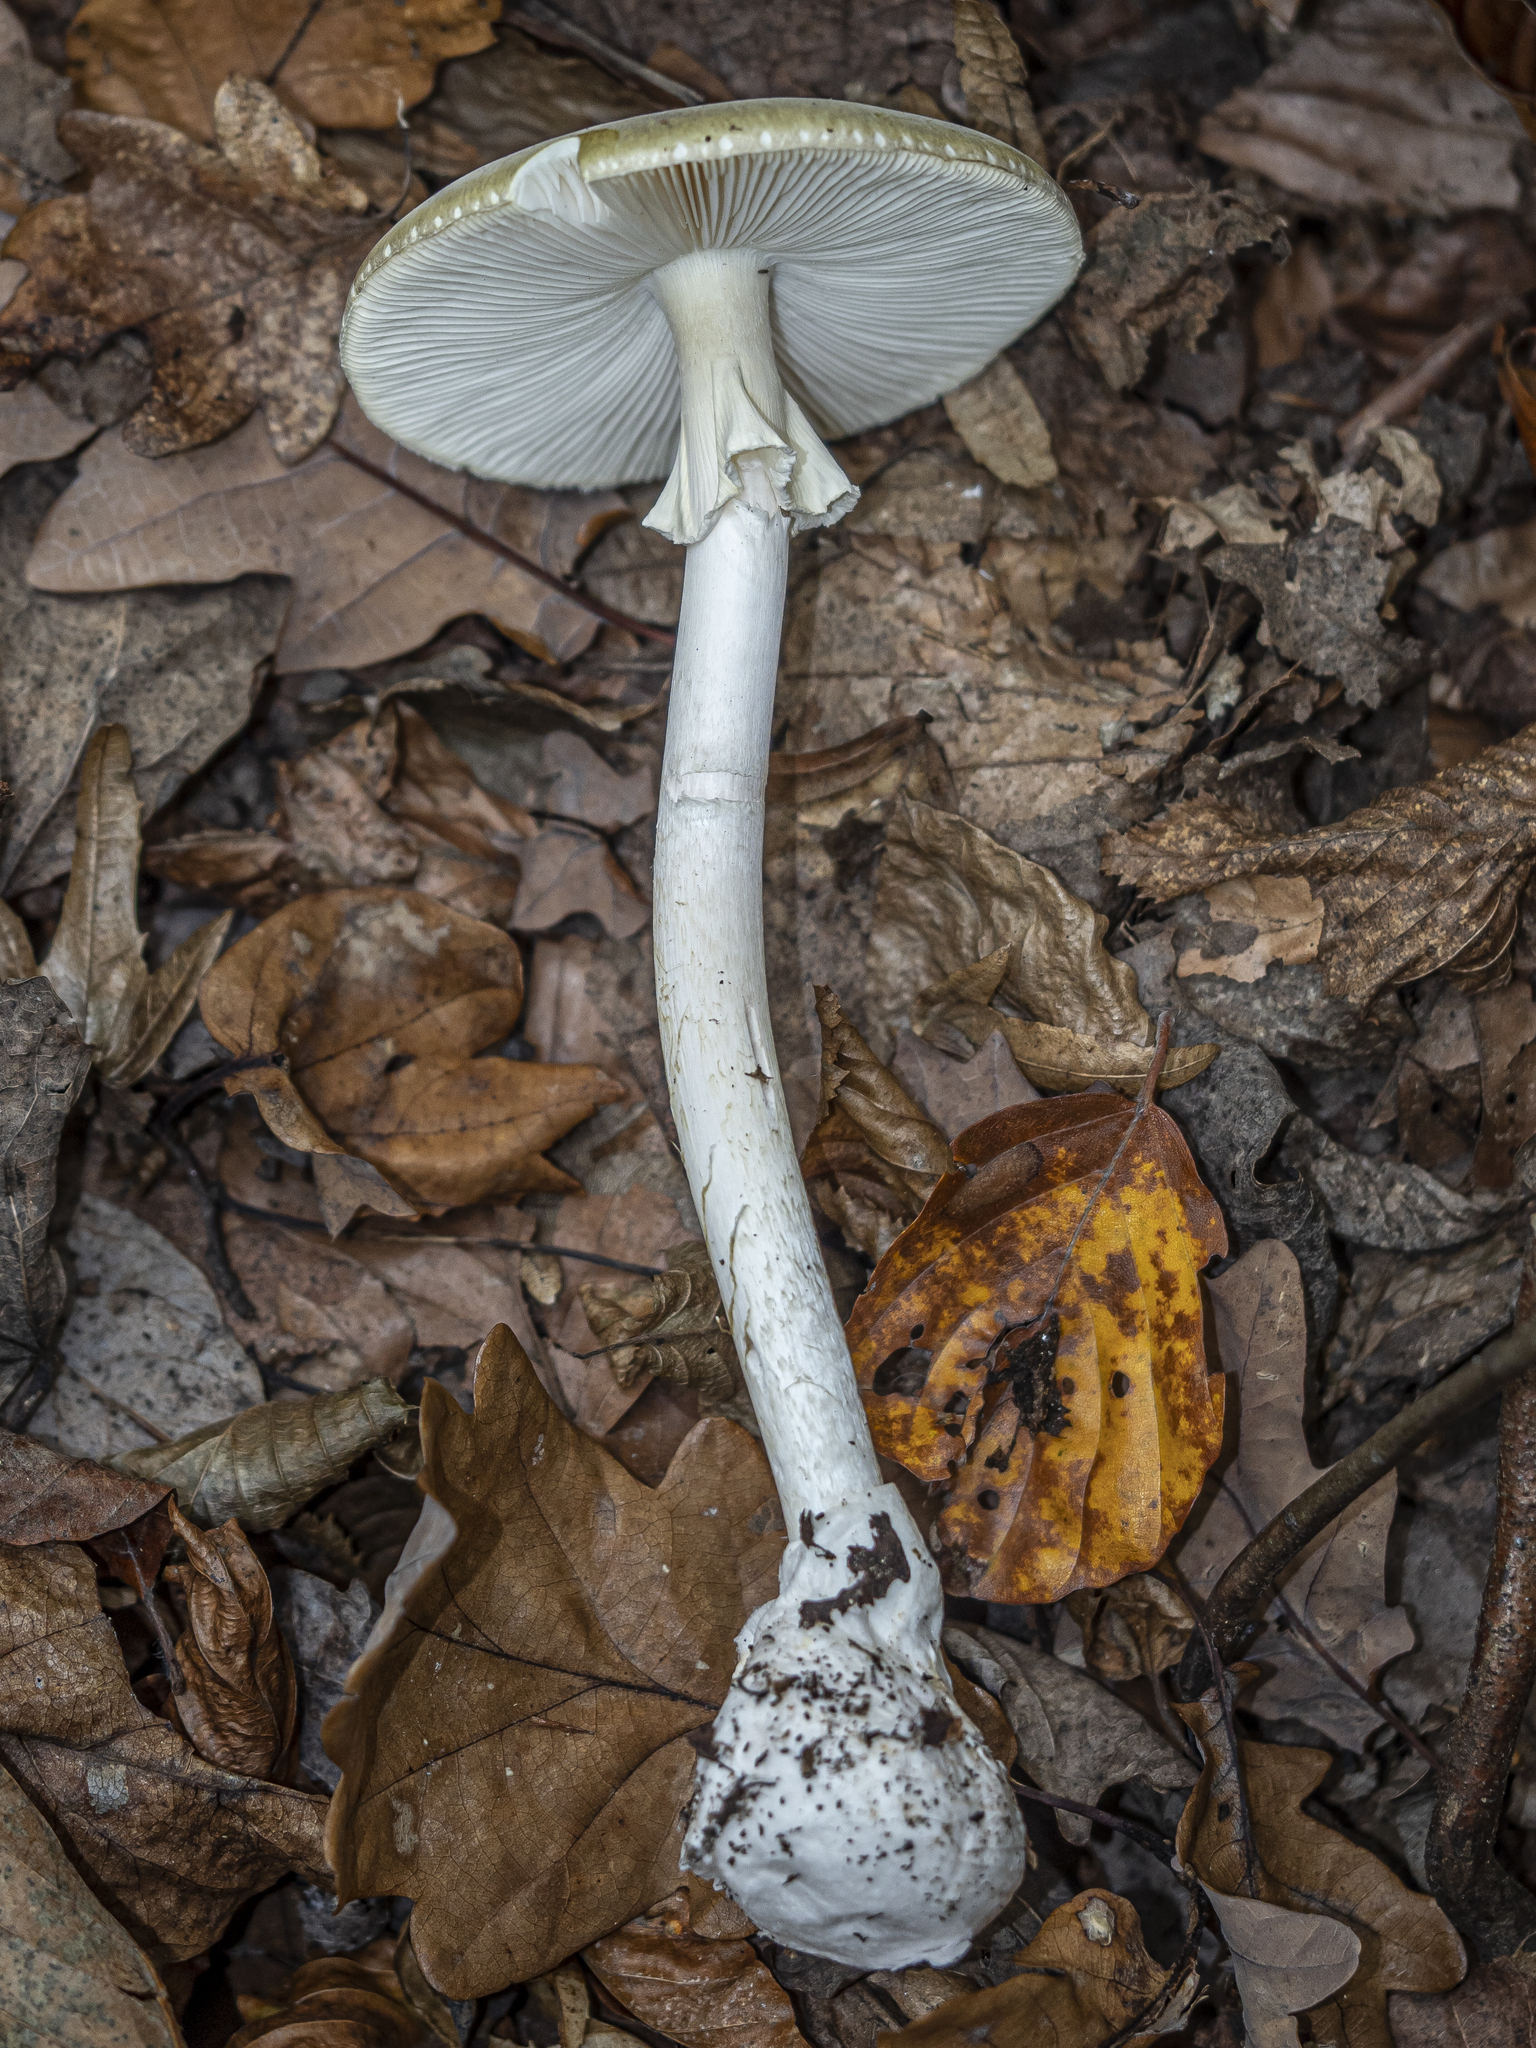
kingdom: Fungi
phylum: Basidiomycota
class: Agaricomycetes
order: Agaricales
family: Amanitaceae
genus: Amanita
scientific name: Amanita phalloides
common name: Death cap
